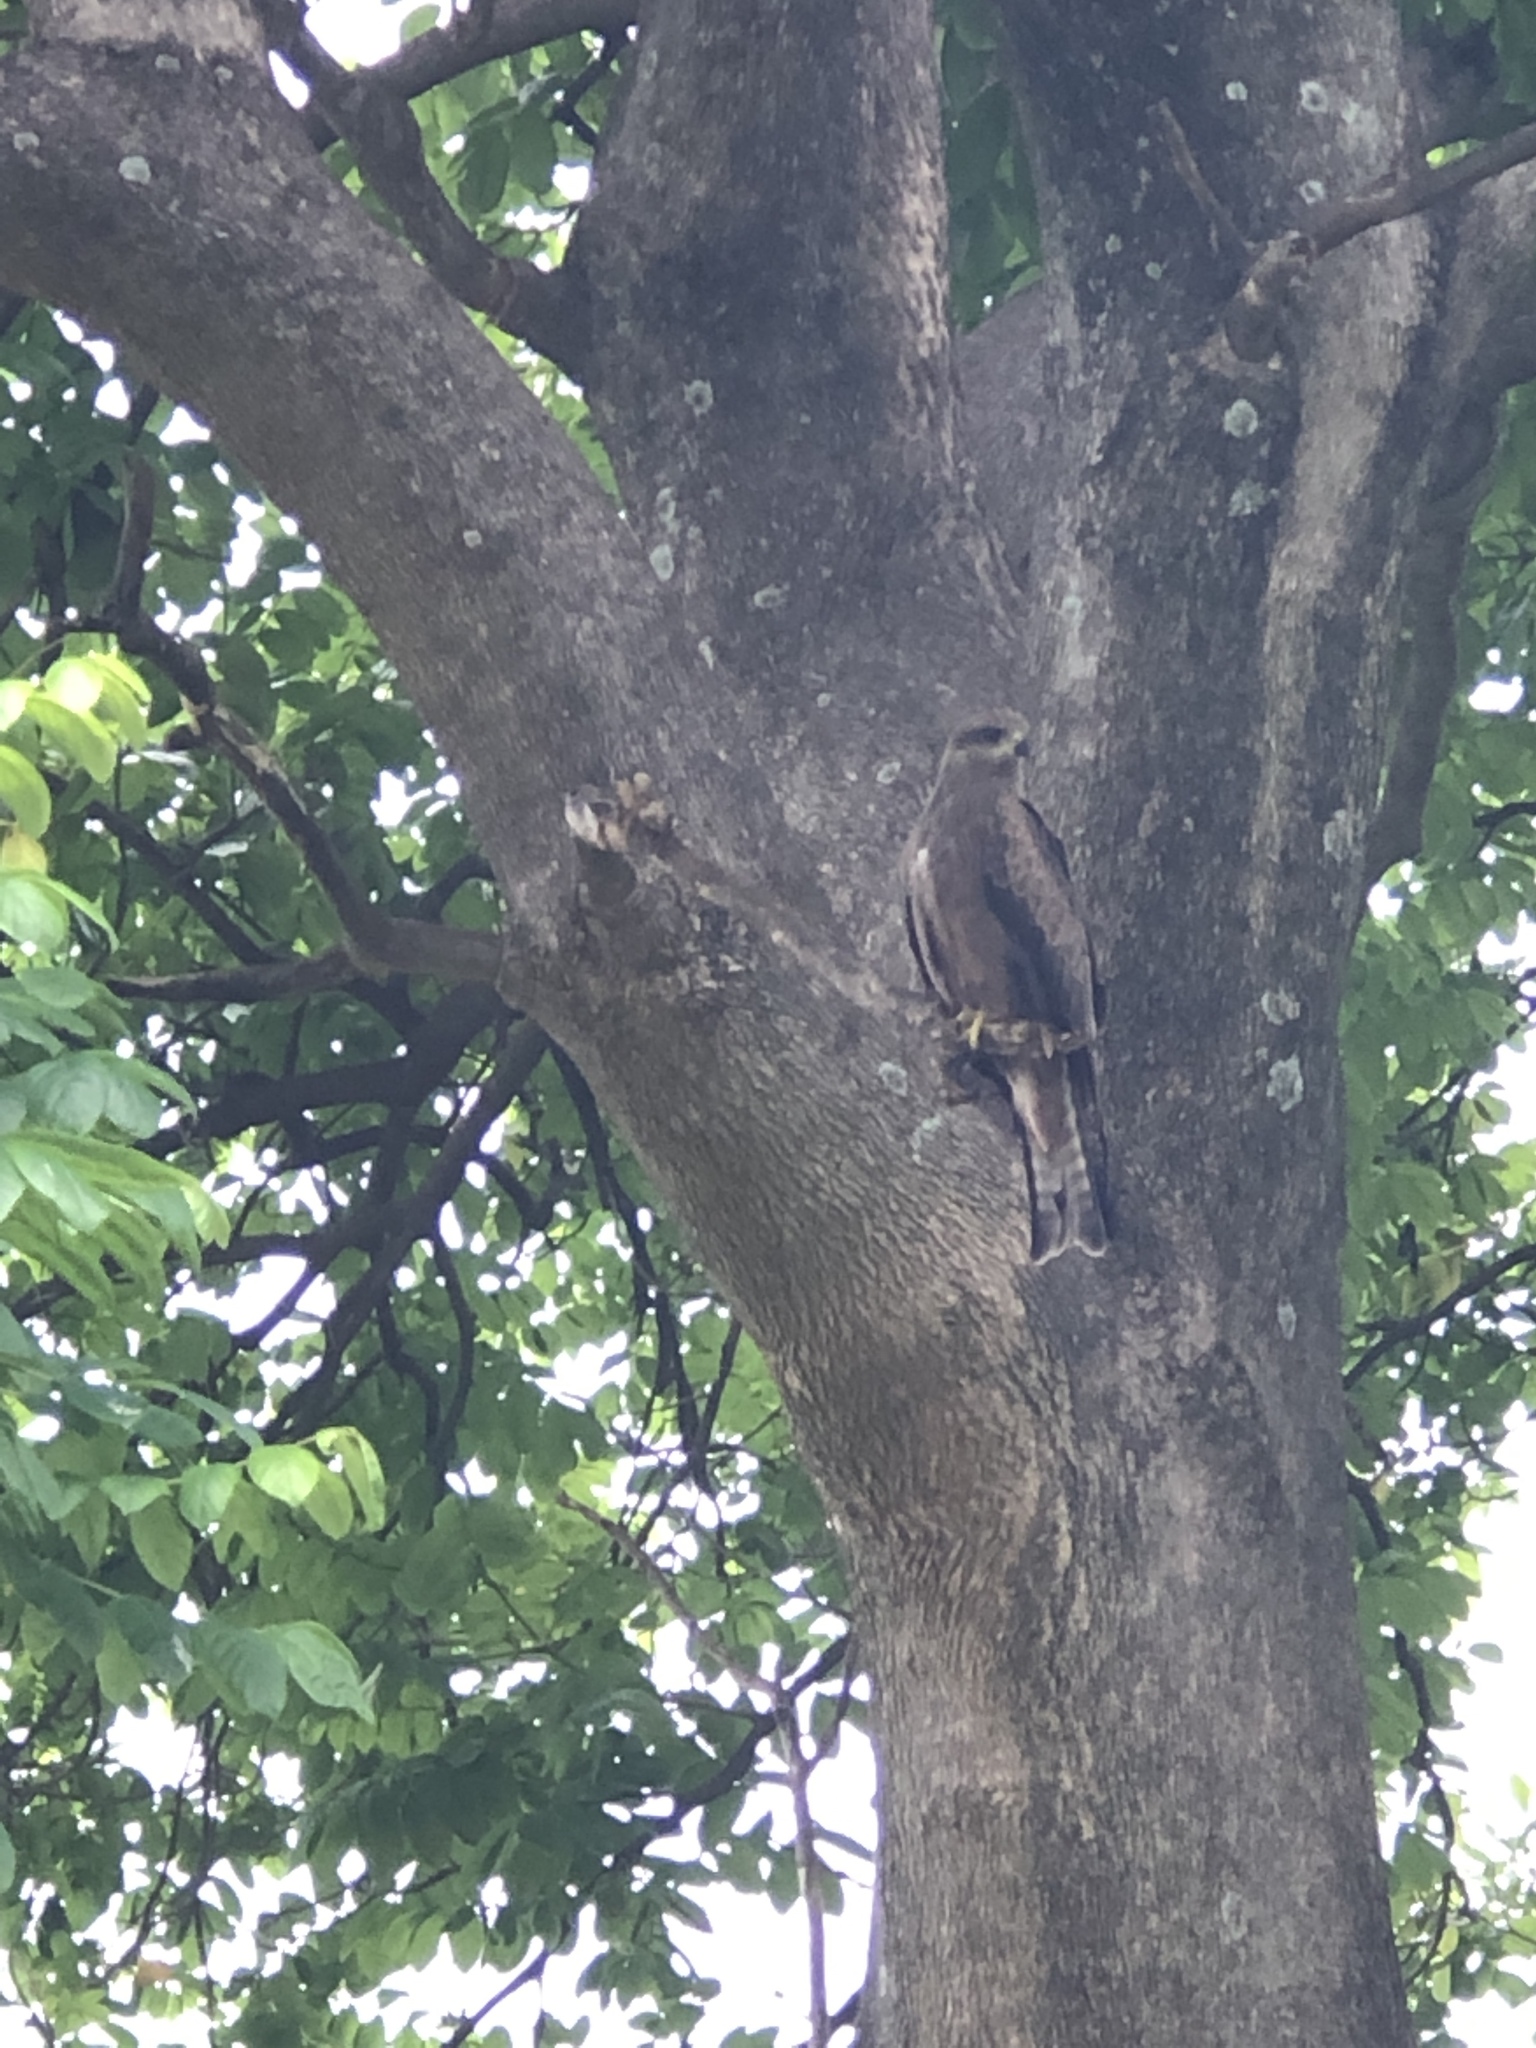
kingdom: Animalia
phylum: Chordata
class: Aves
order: Accipitriformes
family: Accipitridae
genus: Milvus
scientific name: Milvus migrans
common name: Black kite
